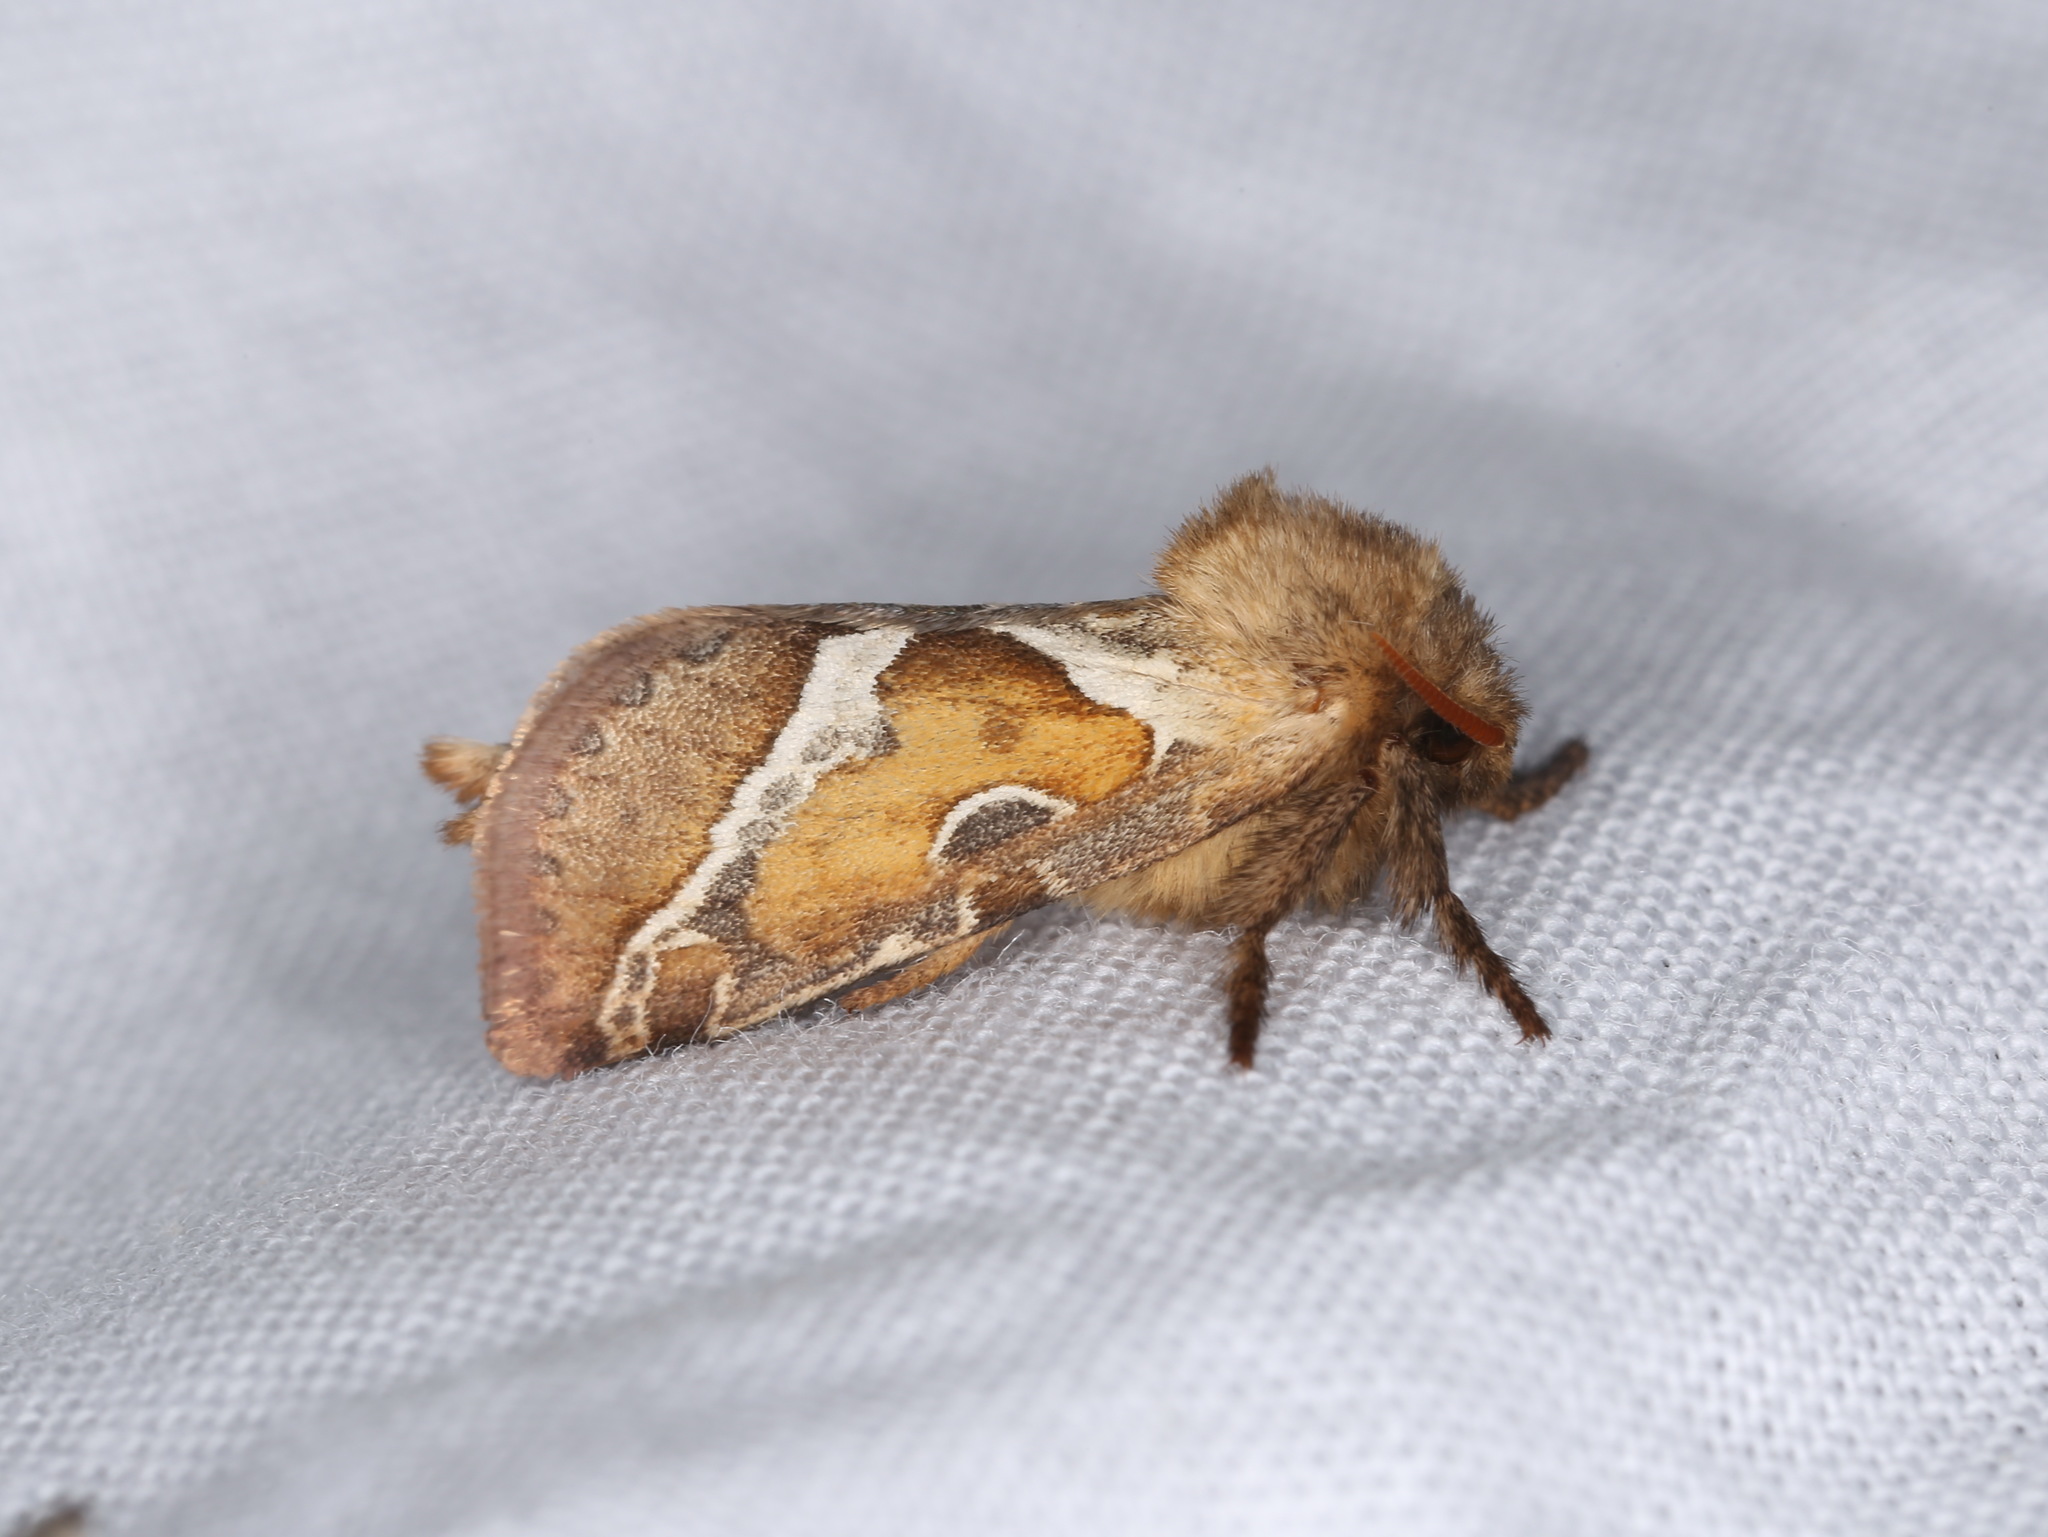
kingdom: Animalia
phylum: Arthropoda
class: Insecta
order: Lepidoptera
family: Hepialidae
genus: Triodia
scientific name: Triodia sylvina
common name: Orange swift
